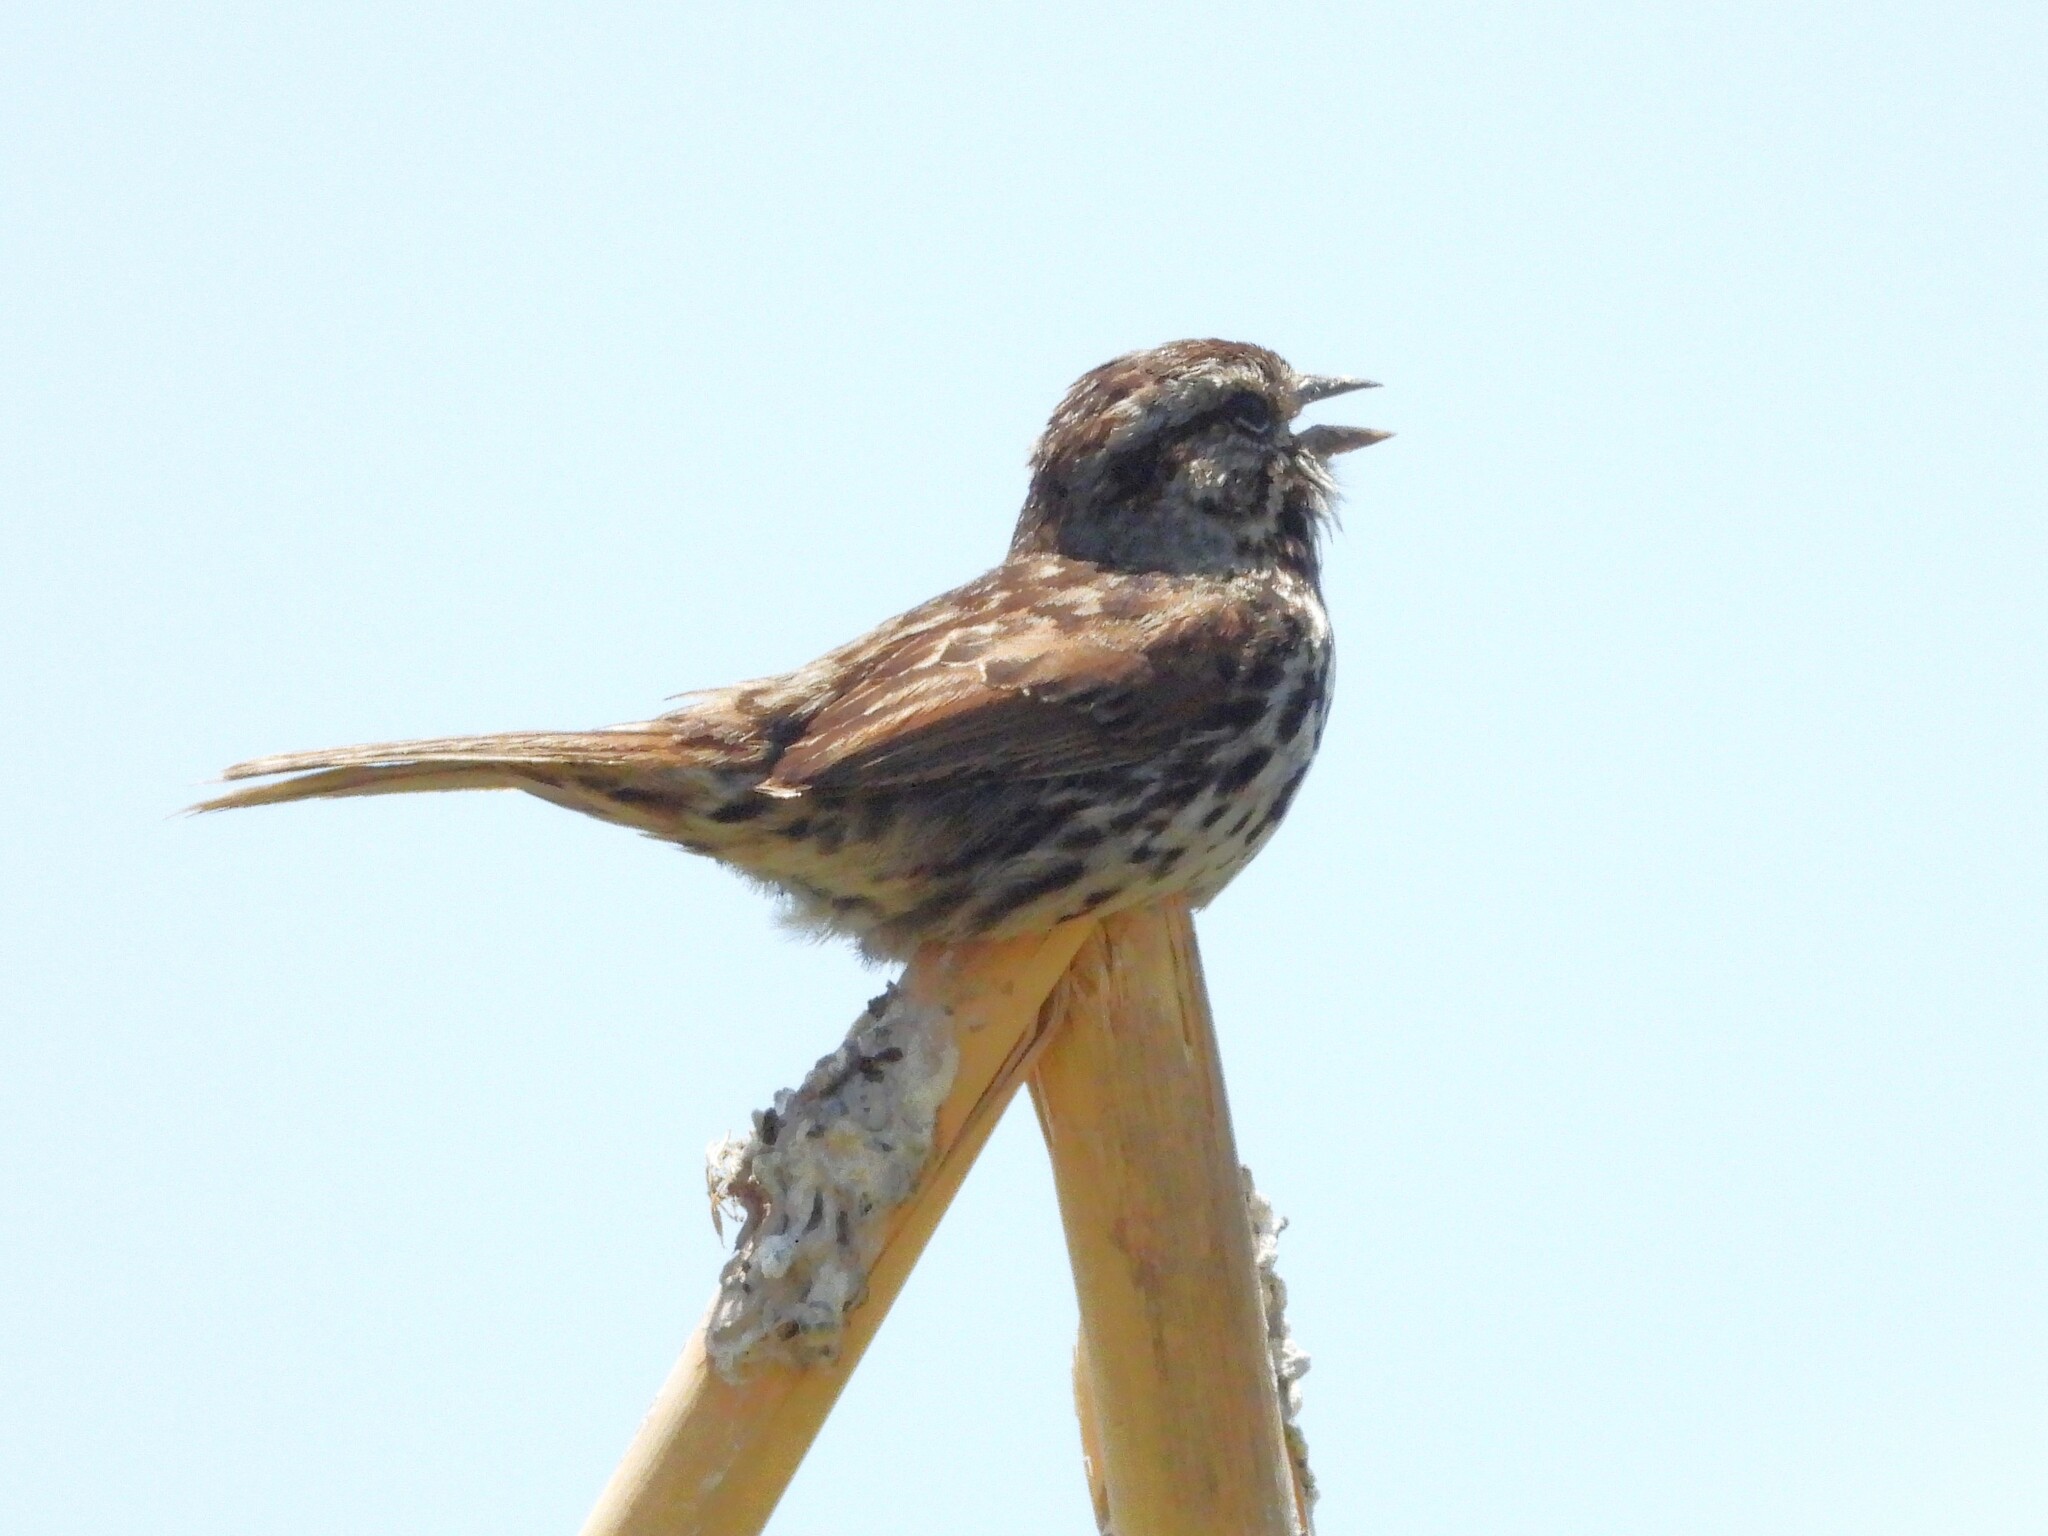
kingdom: Animalia
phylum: Chordata
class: Aves
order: Passeriformes
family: Passerellidae
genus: Melospiza
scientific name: Melospiza melodia
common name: Song sparrow
